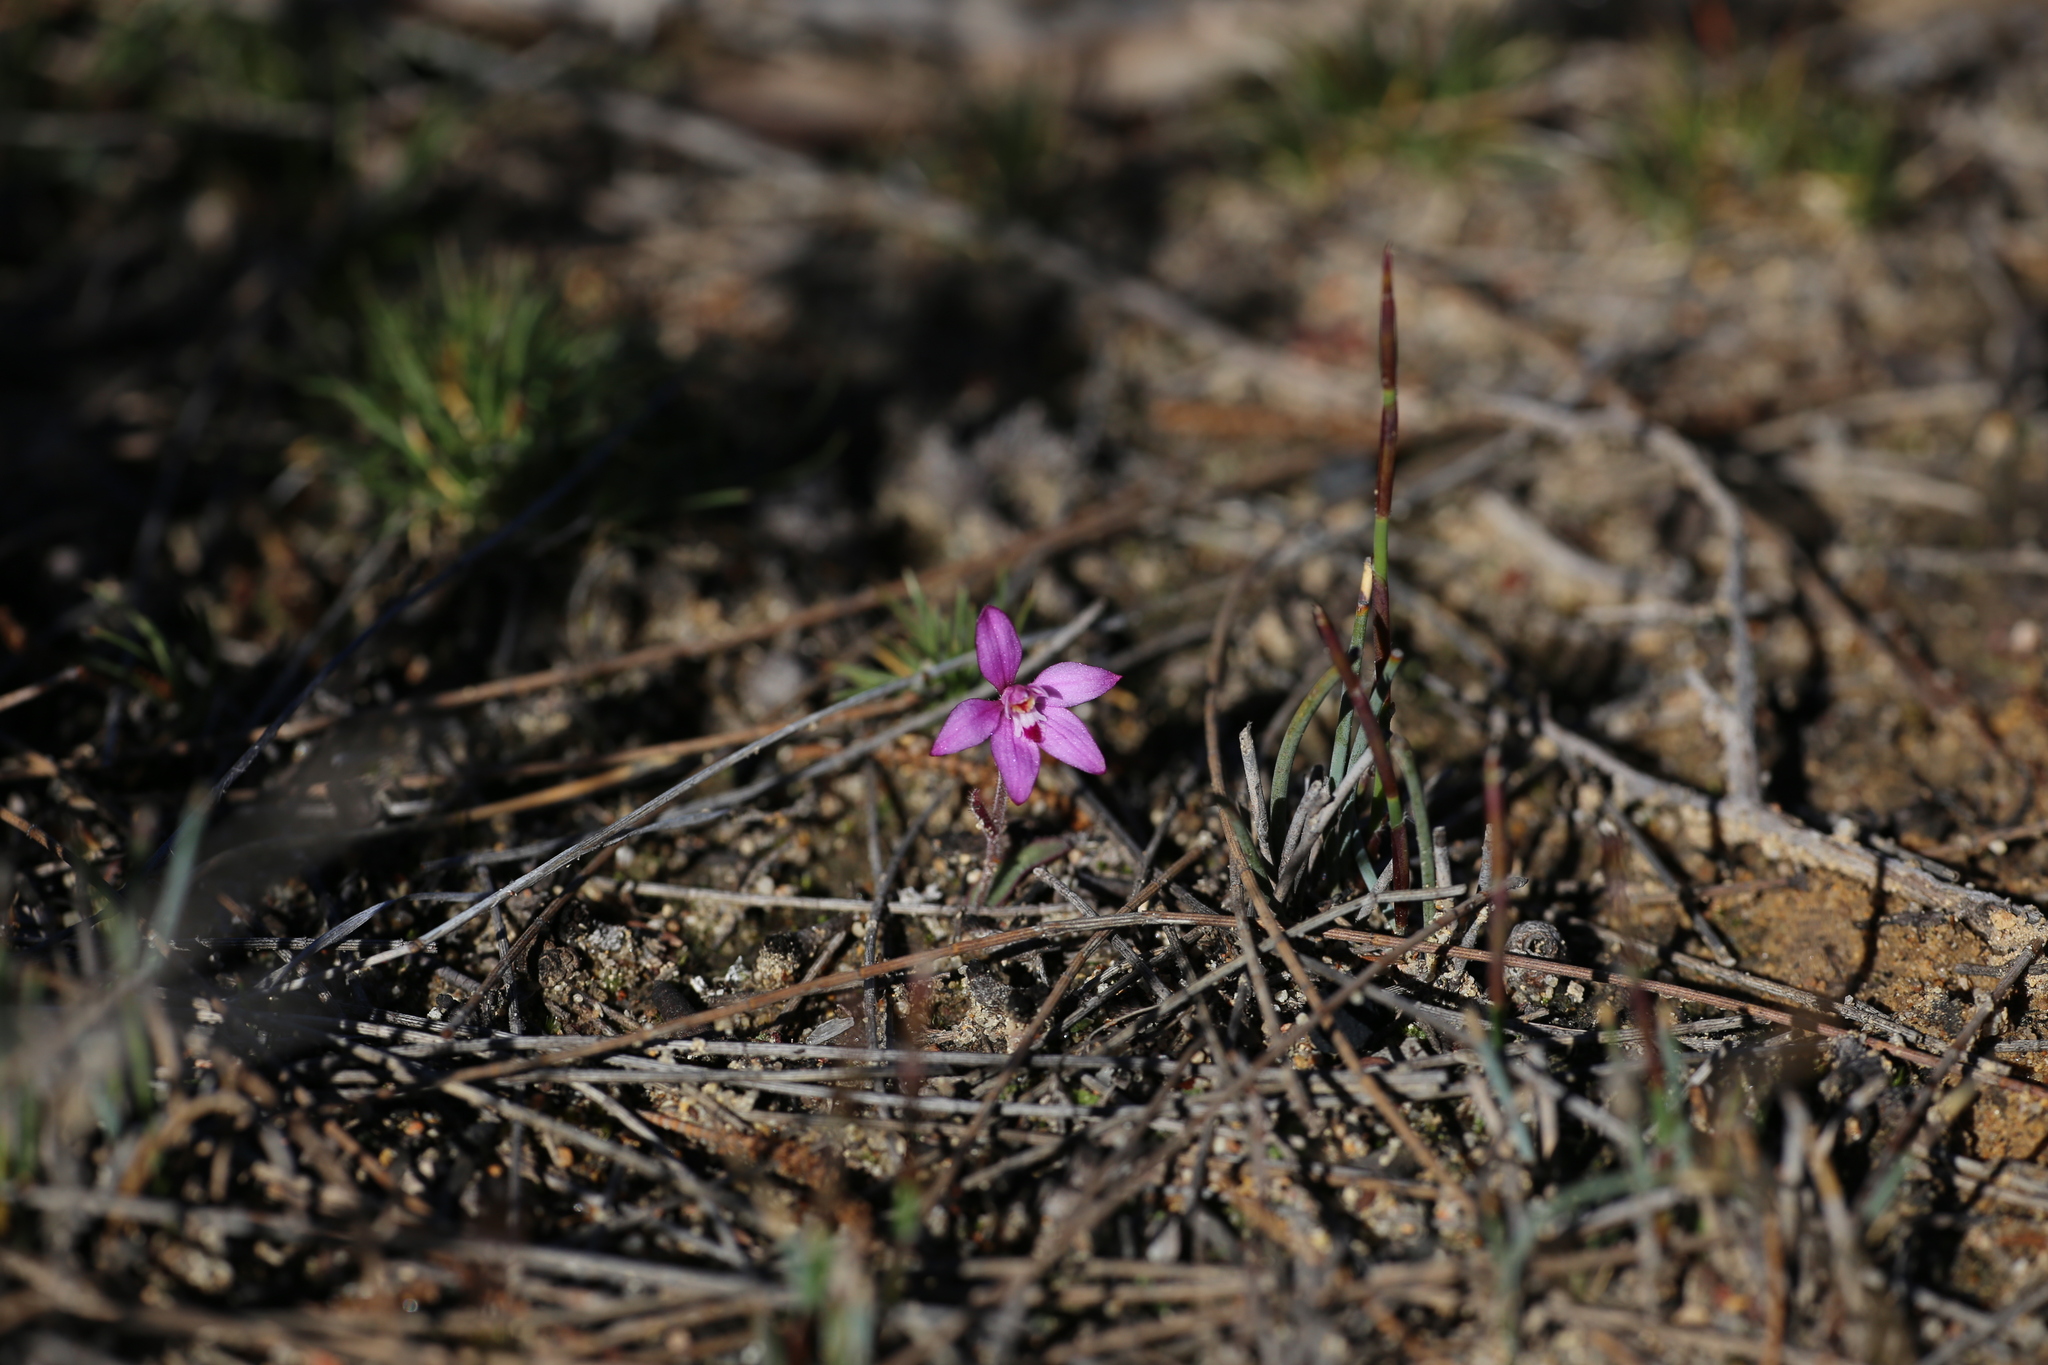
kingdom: Plantae
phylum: Tracheophyta
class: Liliopsida
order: Asparagales
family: Orchidaceae
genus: Caladenia
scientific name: Caladenia reptans
